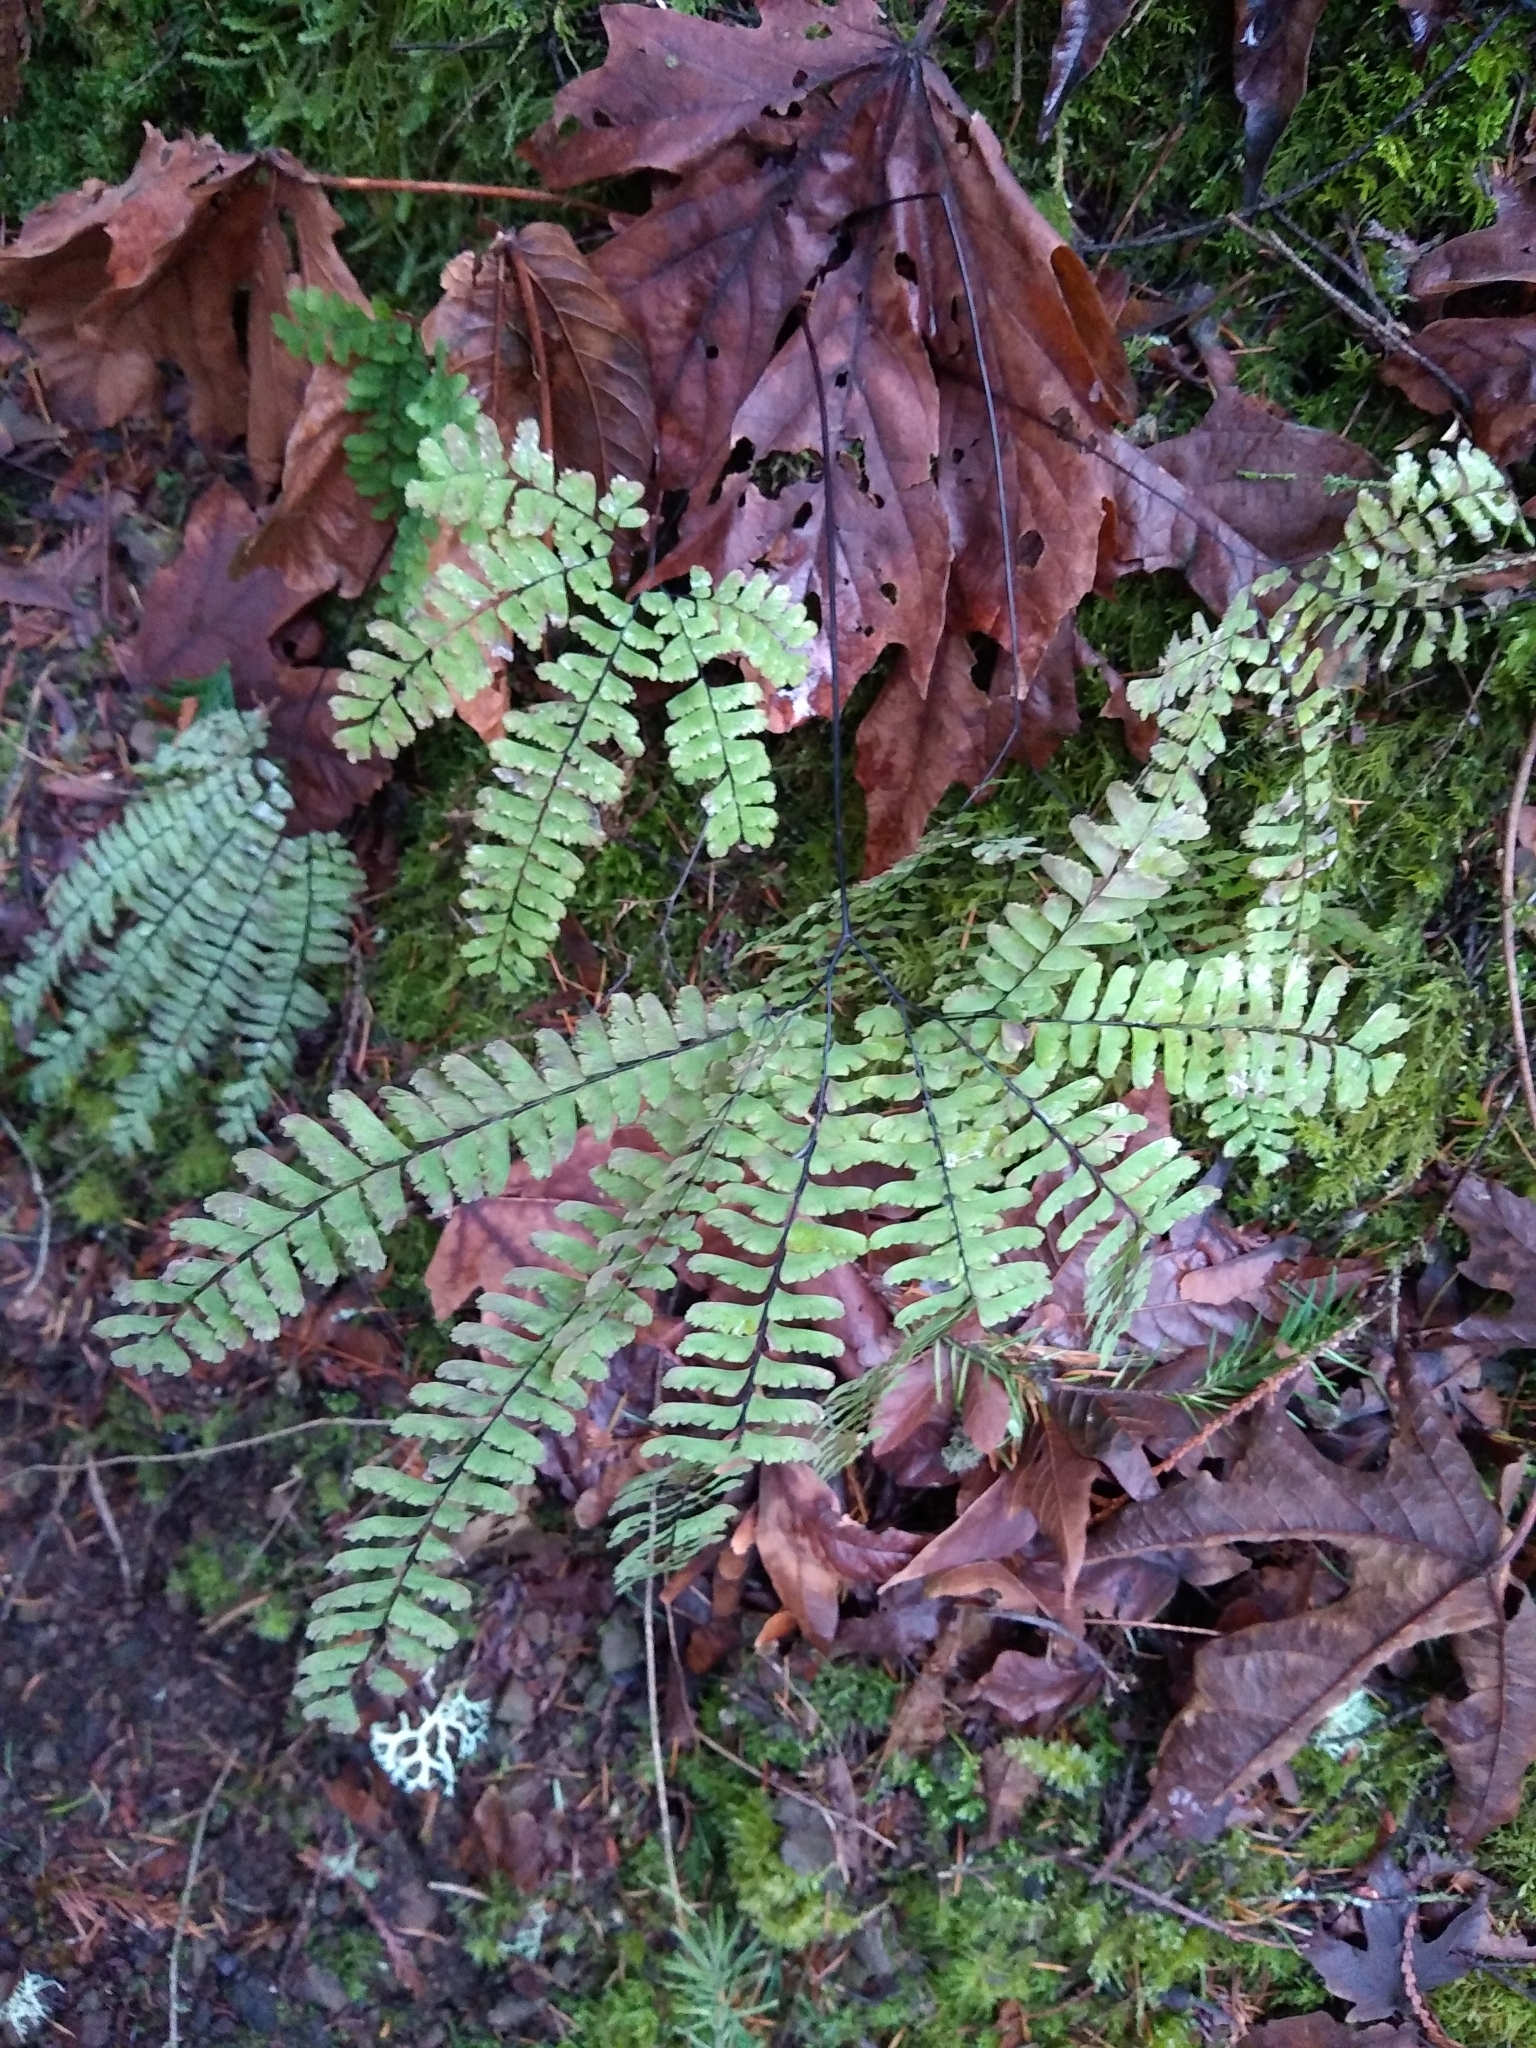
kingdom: Plantae
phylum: Tracheophyta
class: Polypodiopsida
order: Polypodiales
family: Pteridaceae
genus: Adiantum
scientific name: Adiantum aleuticum
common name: Aleutian maidenhair fern
